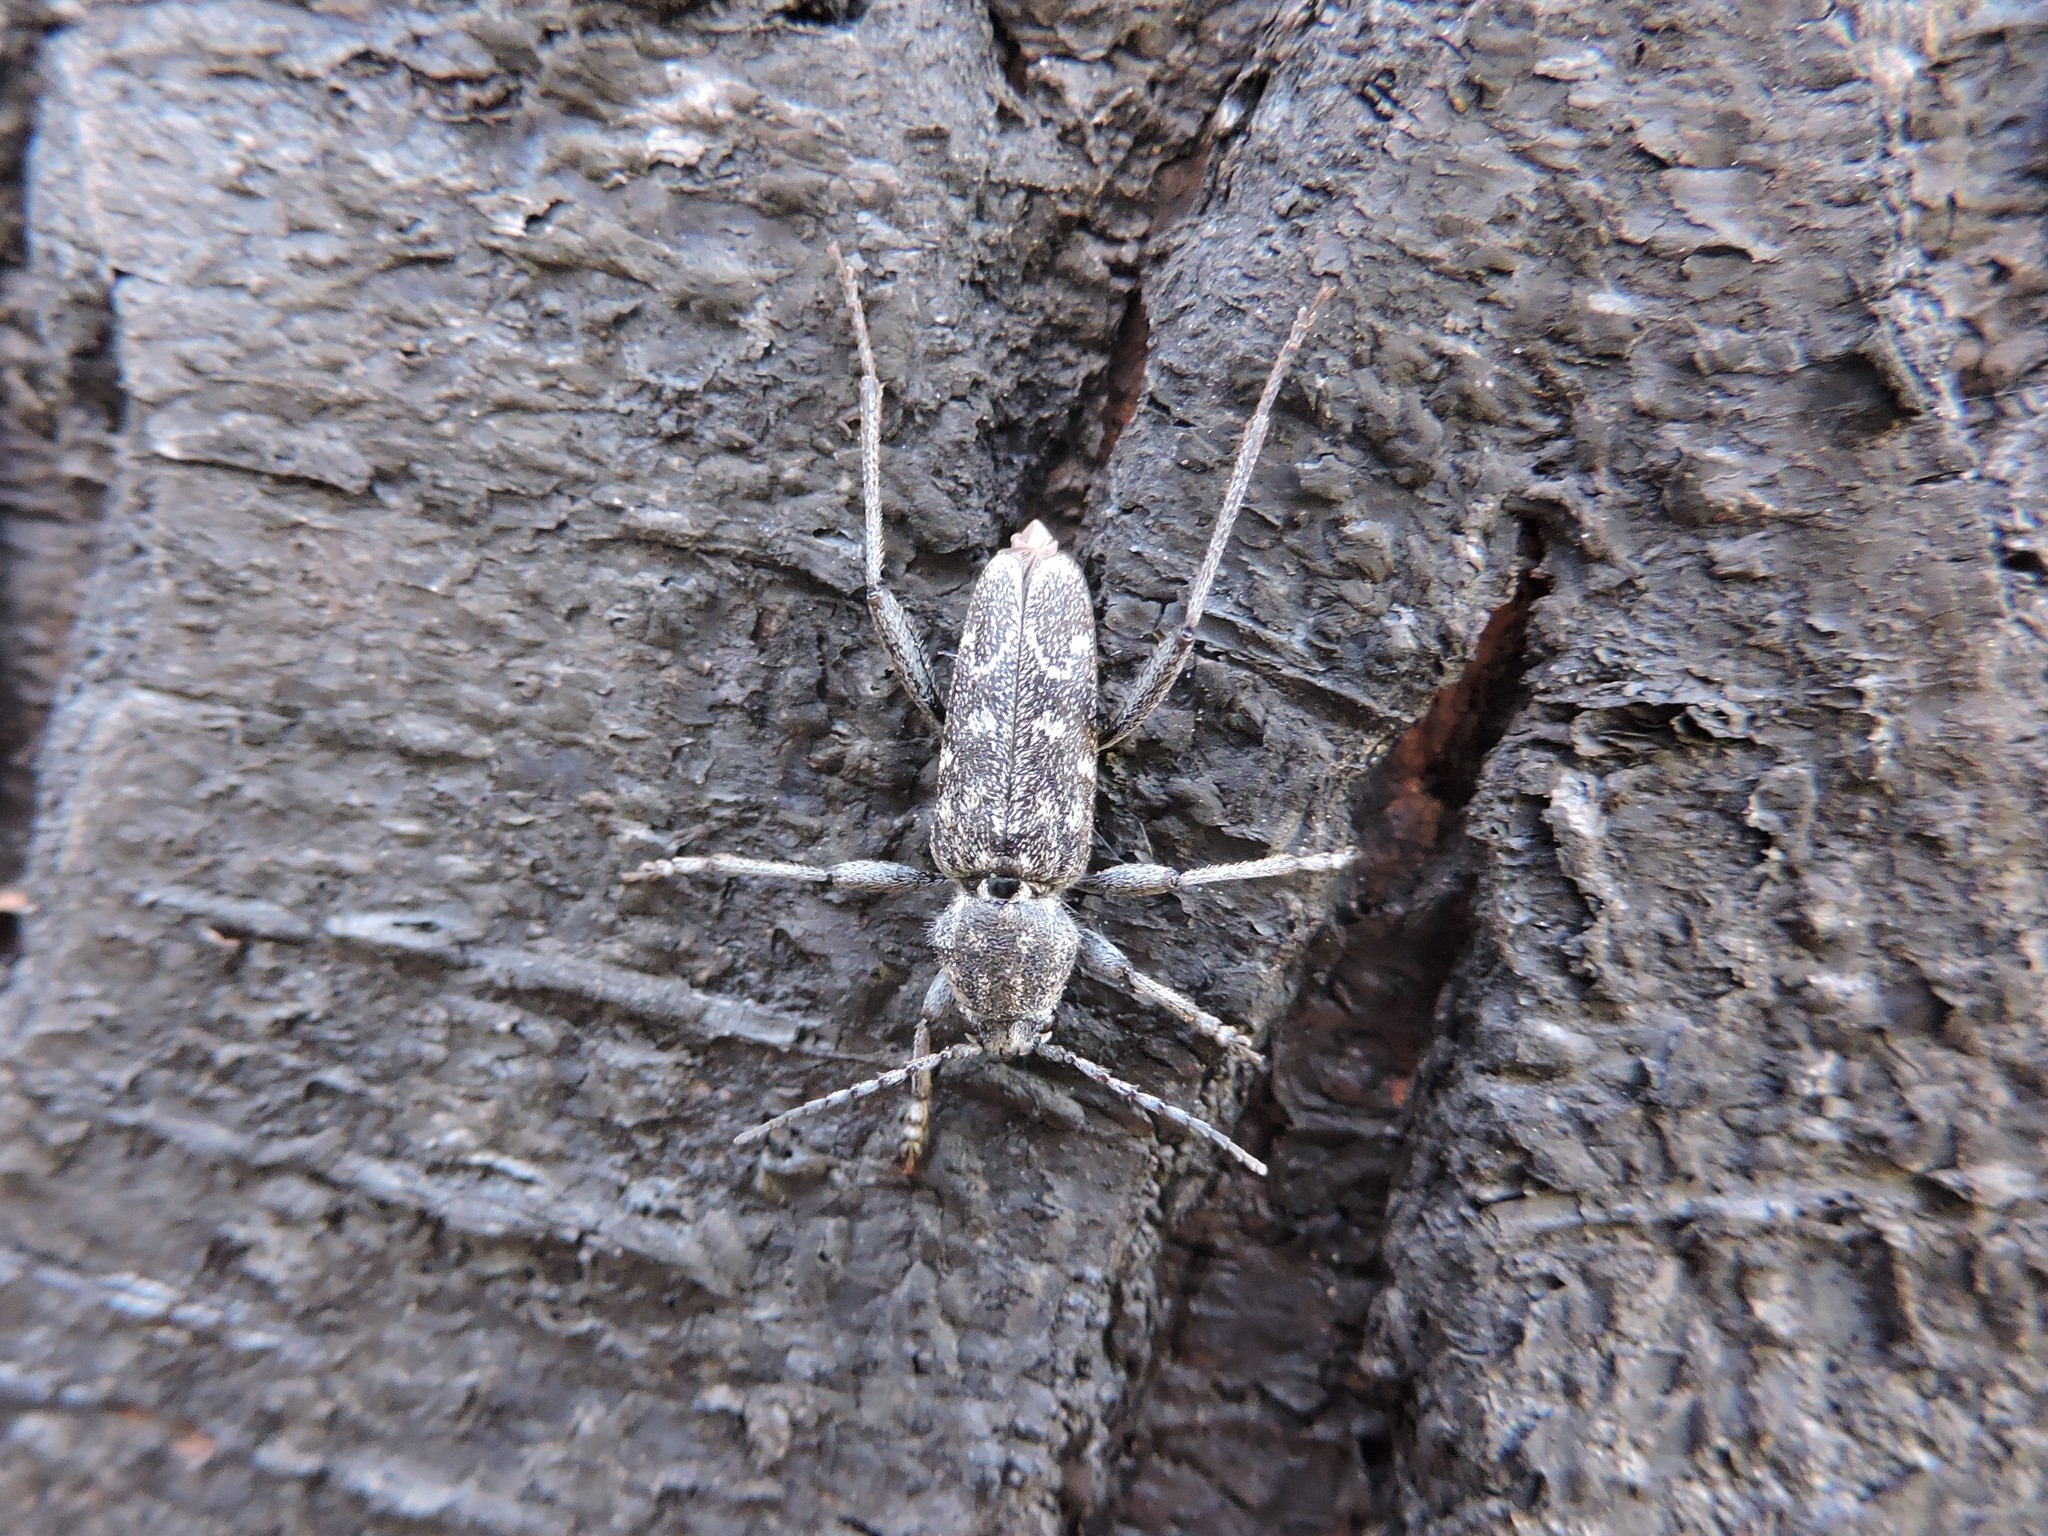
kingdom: Animalia
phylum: Arthropoda
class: Insecta
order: Coleoptera
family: Cerambycidae
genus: Xylotrechus
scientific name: Xylotrechus rusticus
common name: Grey tiger long-horned beetle
